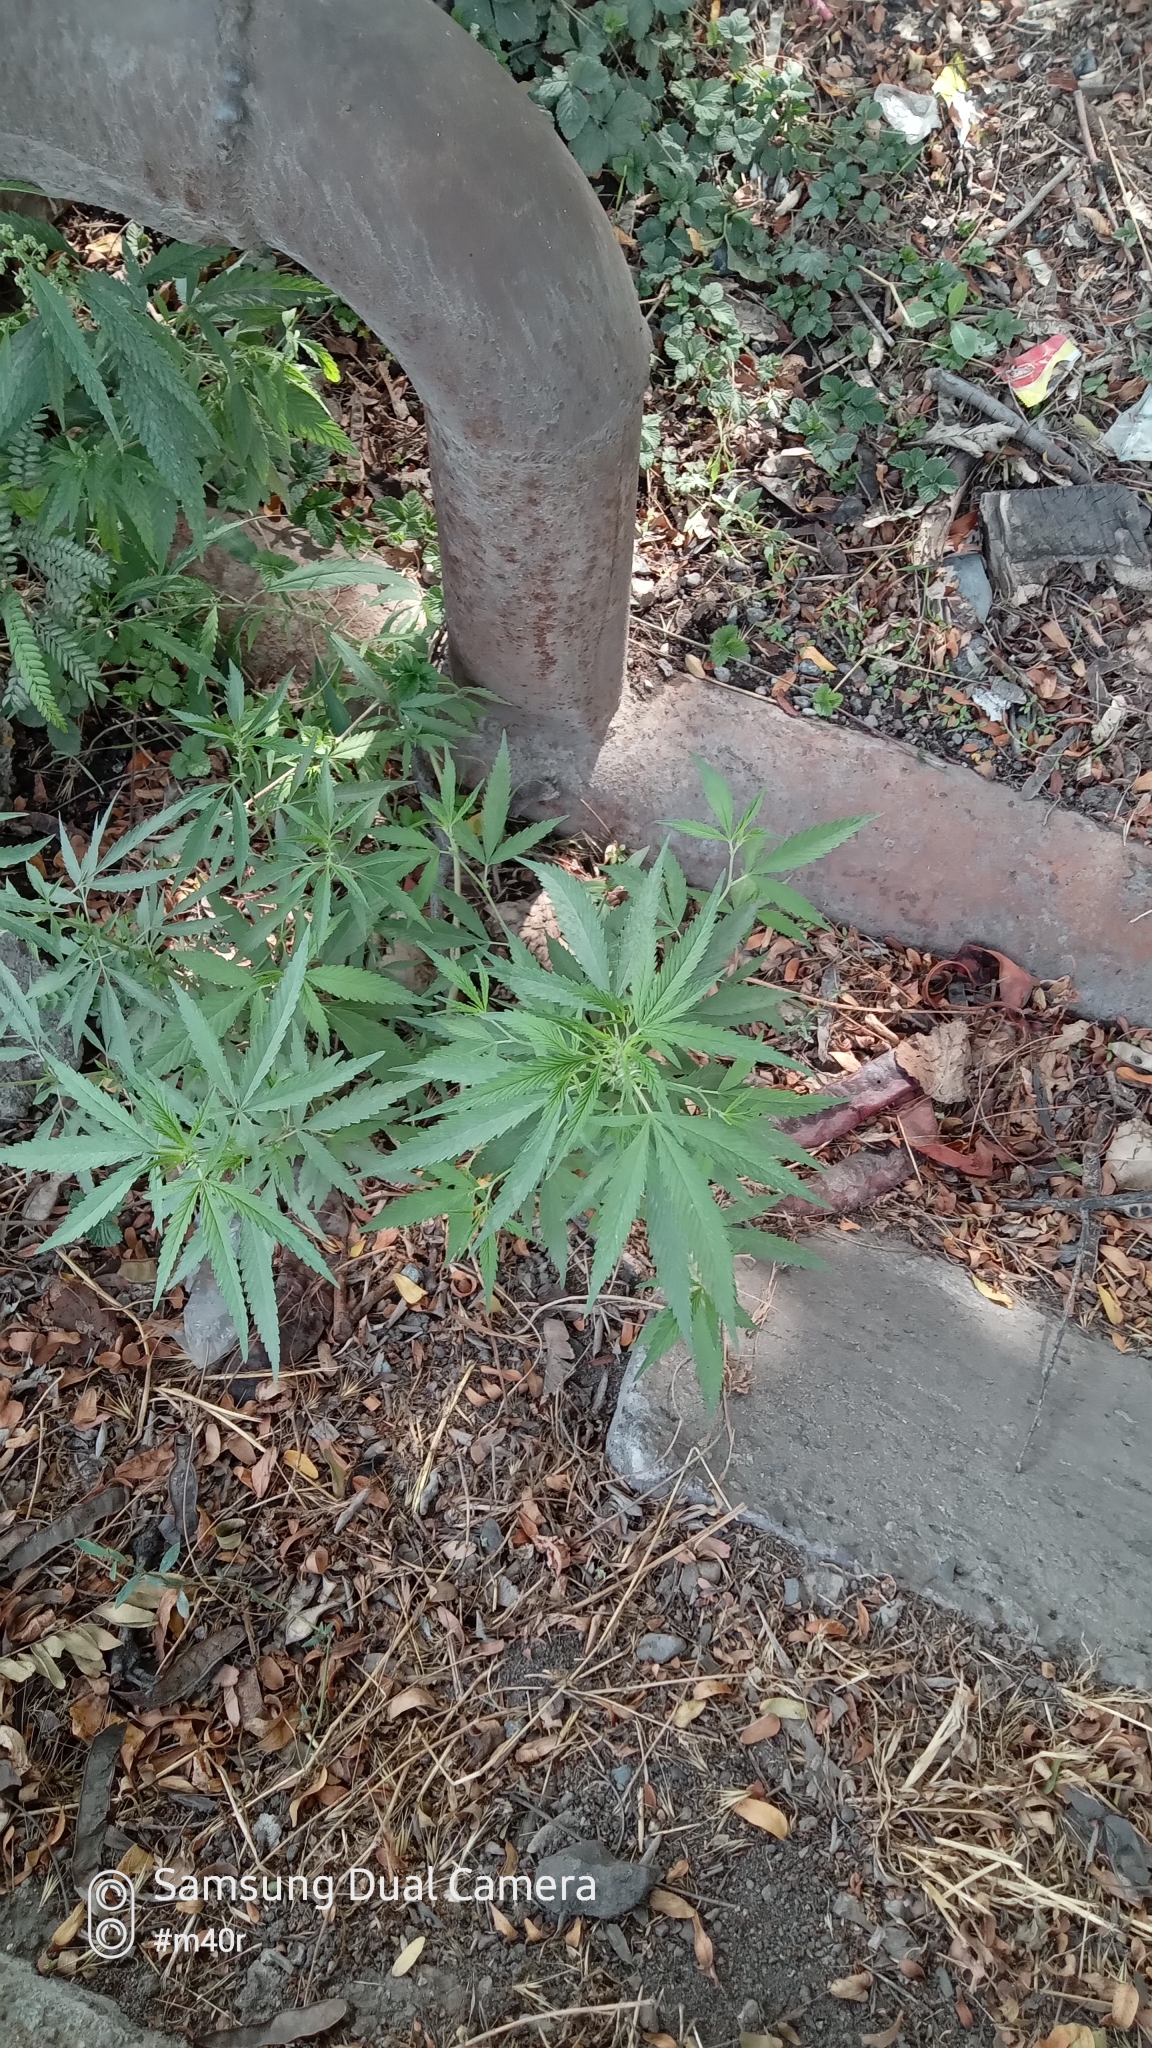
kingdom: Plantae
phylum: Tracheophyta
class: Magnoliopsida
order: Rosales
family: Cannabaceae
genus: Cannabis
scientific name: Cannabis sativa
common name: Hemp
